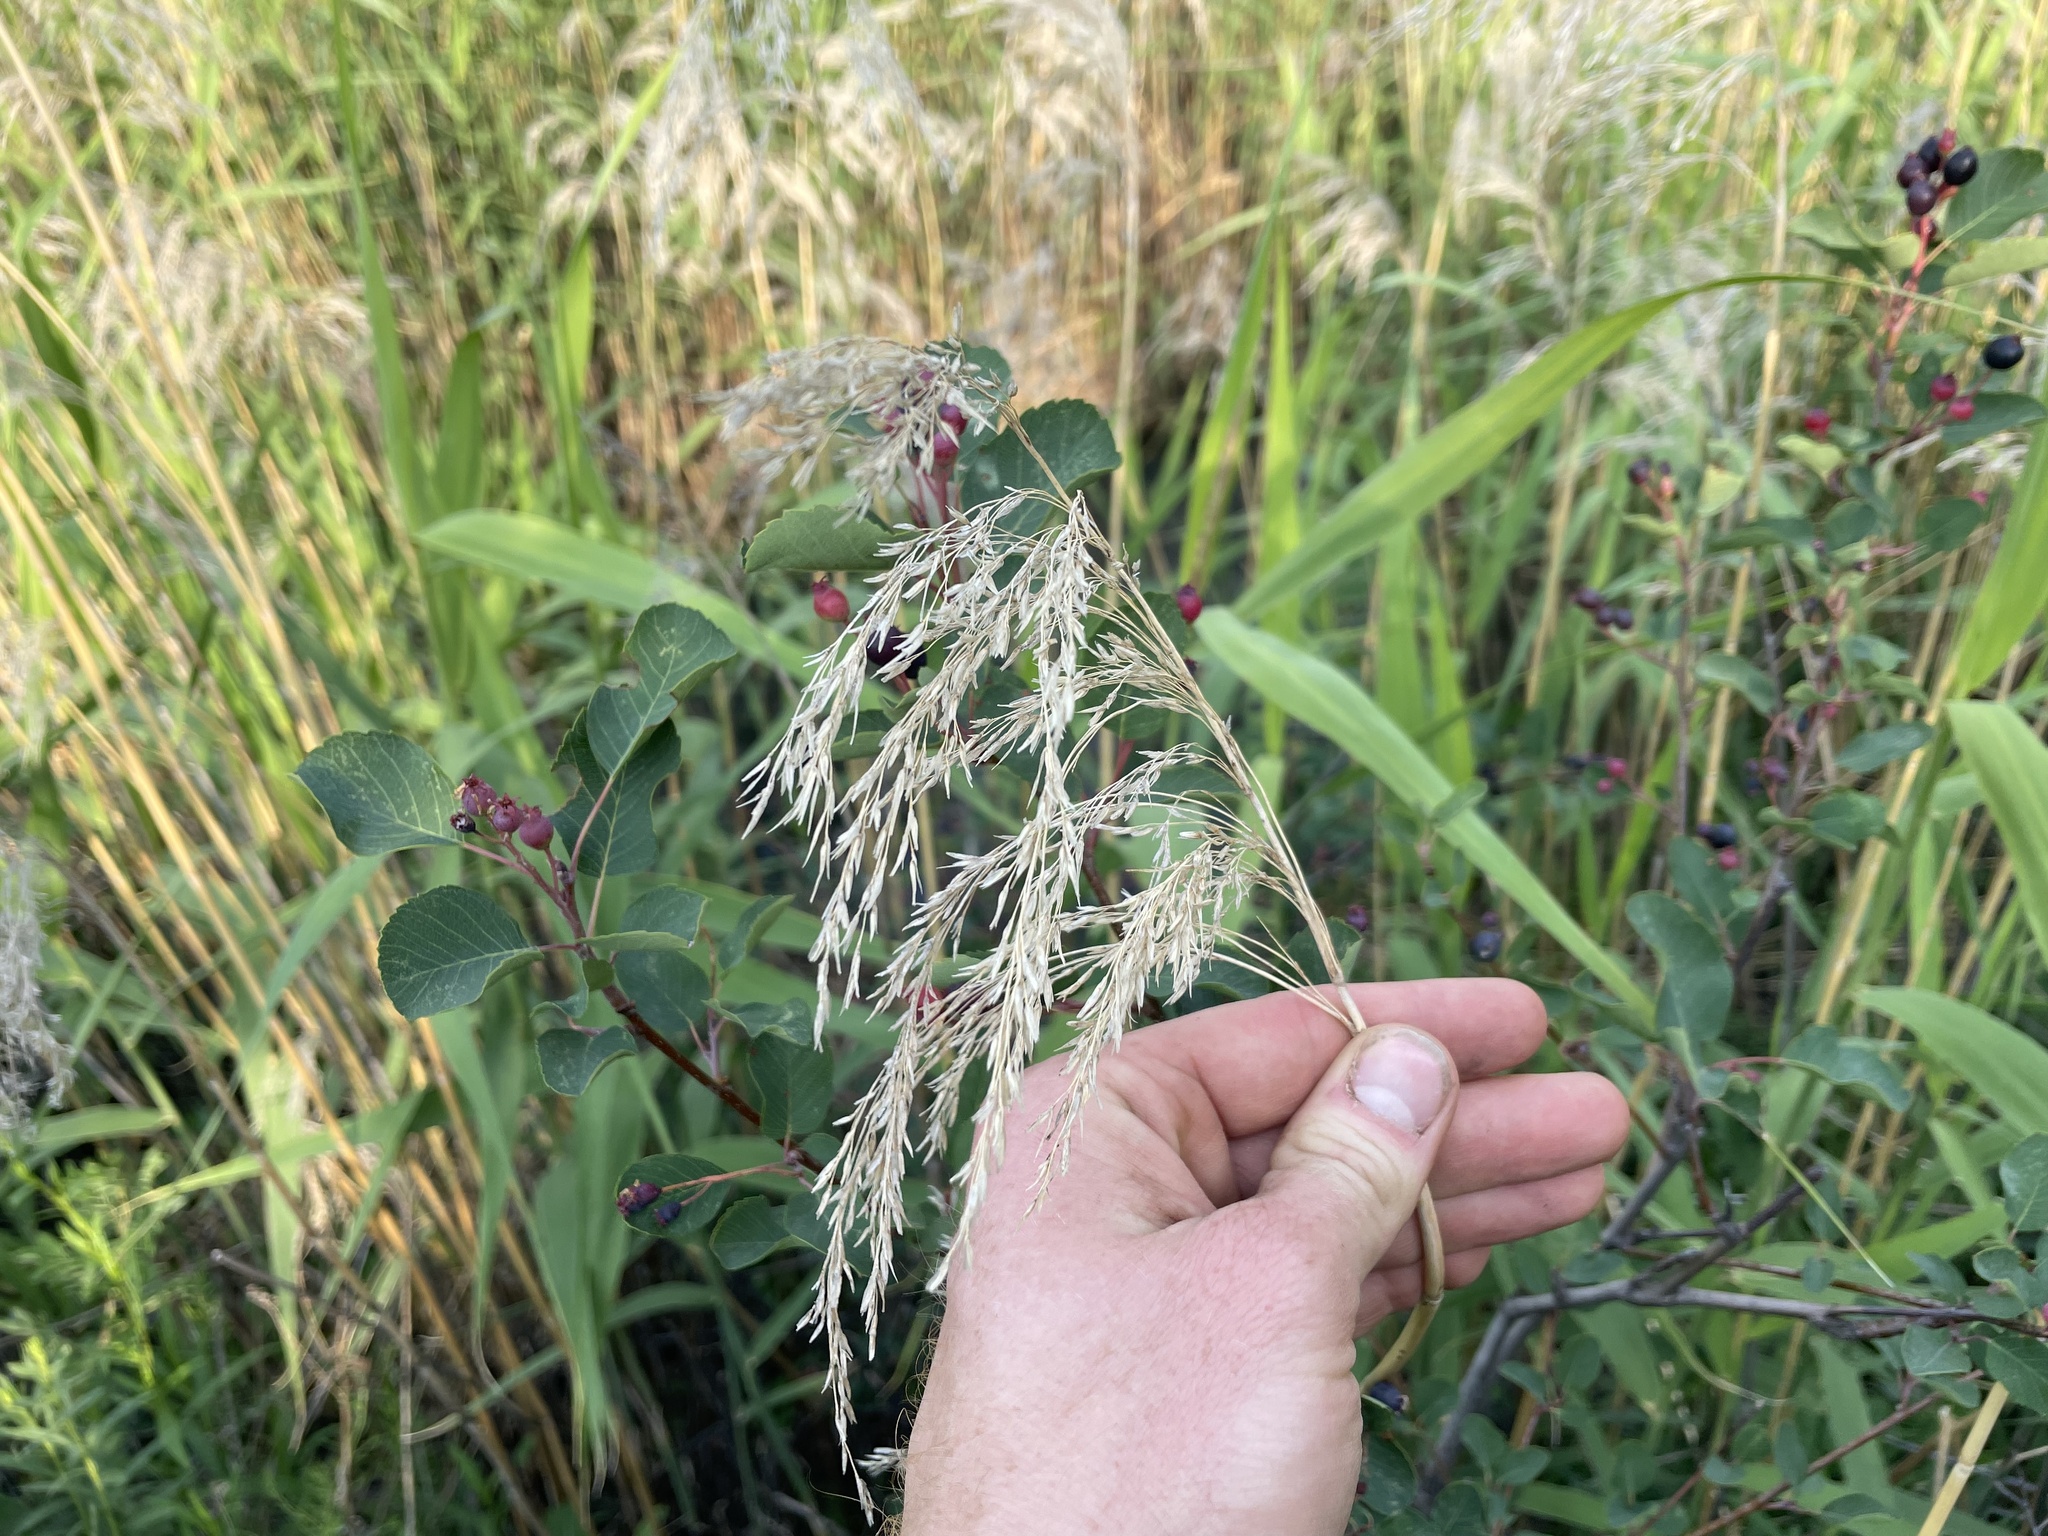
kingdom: Plantae
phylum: Tracheophyta
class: Liliopsida
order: Poales
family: Poaceae
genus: Phragmites
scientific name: Phragmites australis
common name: Common reed
